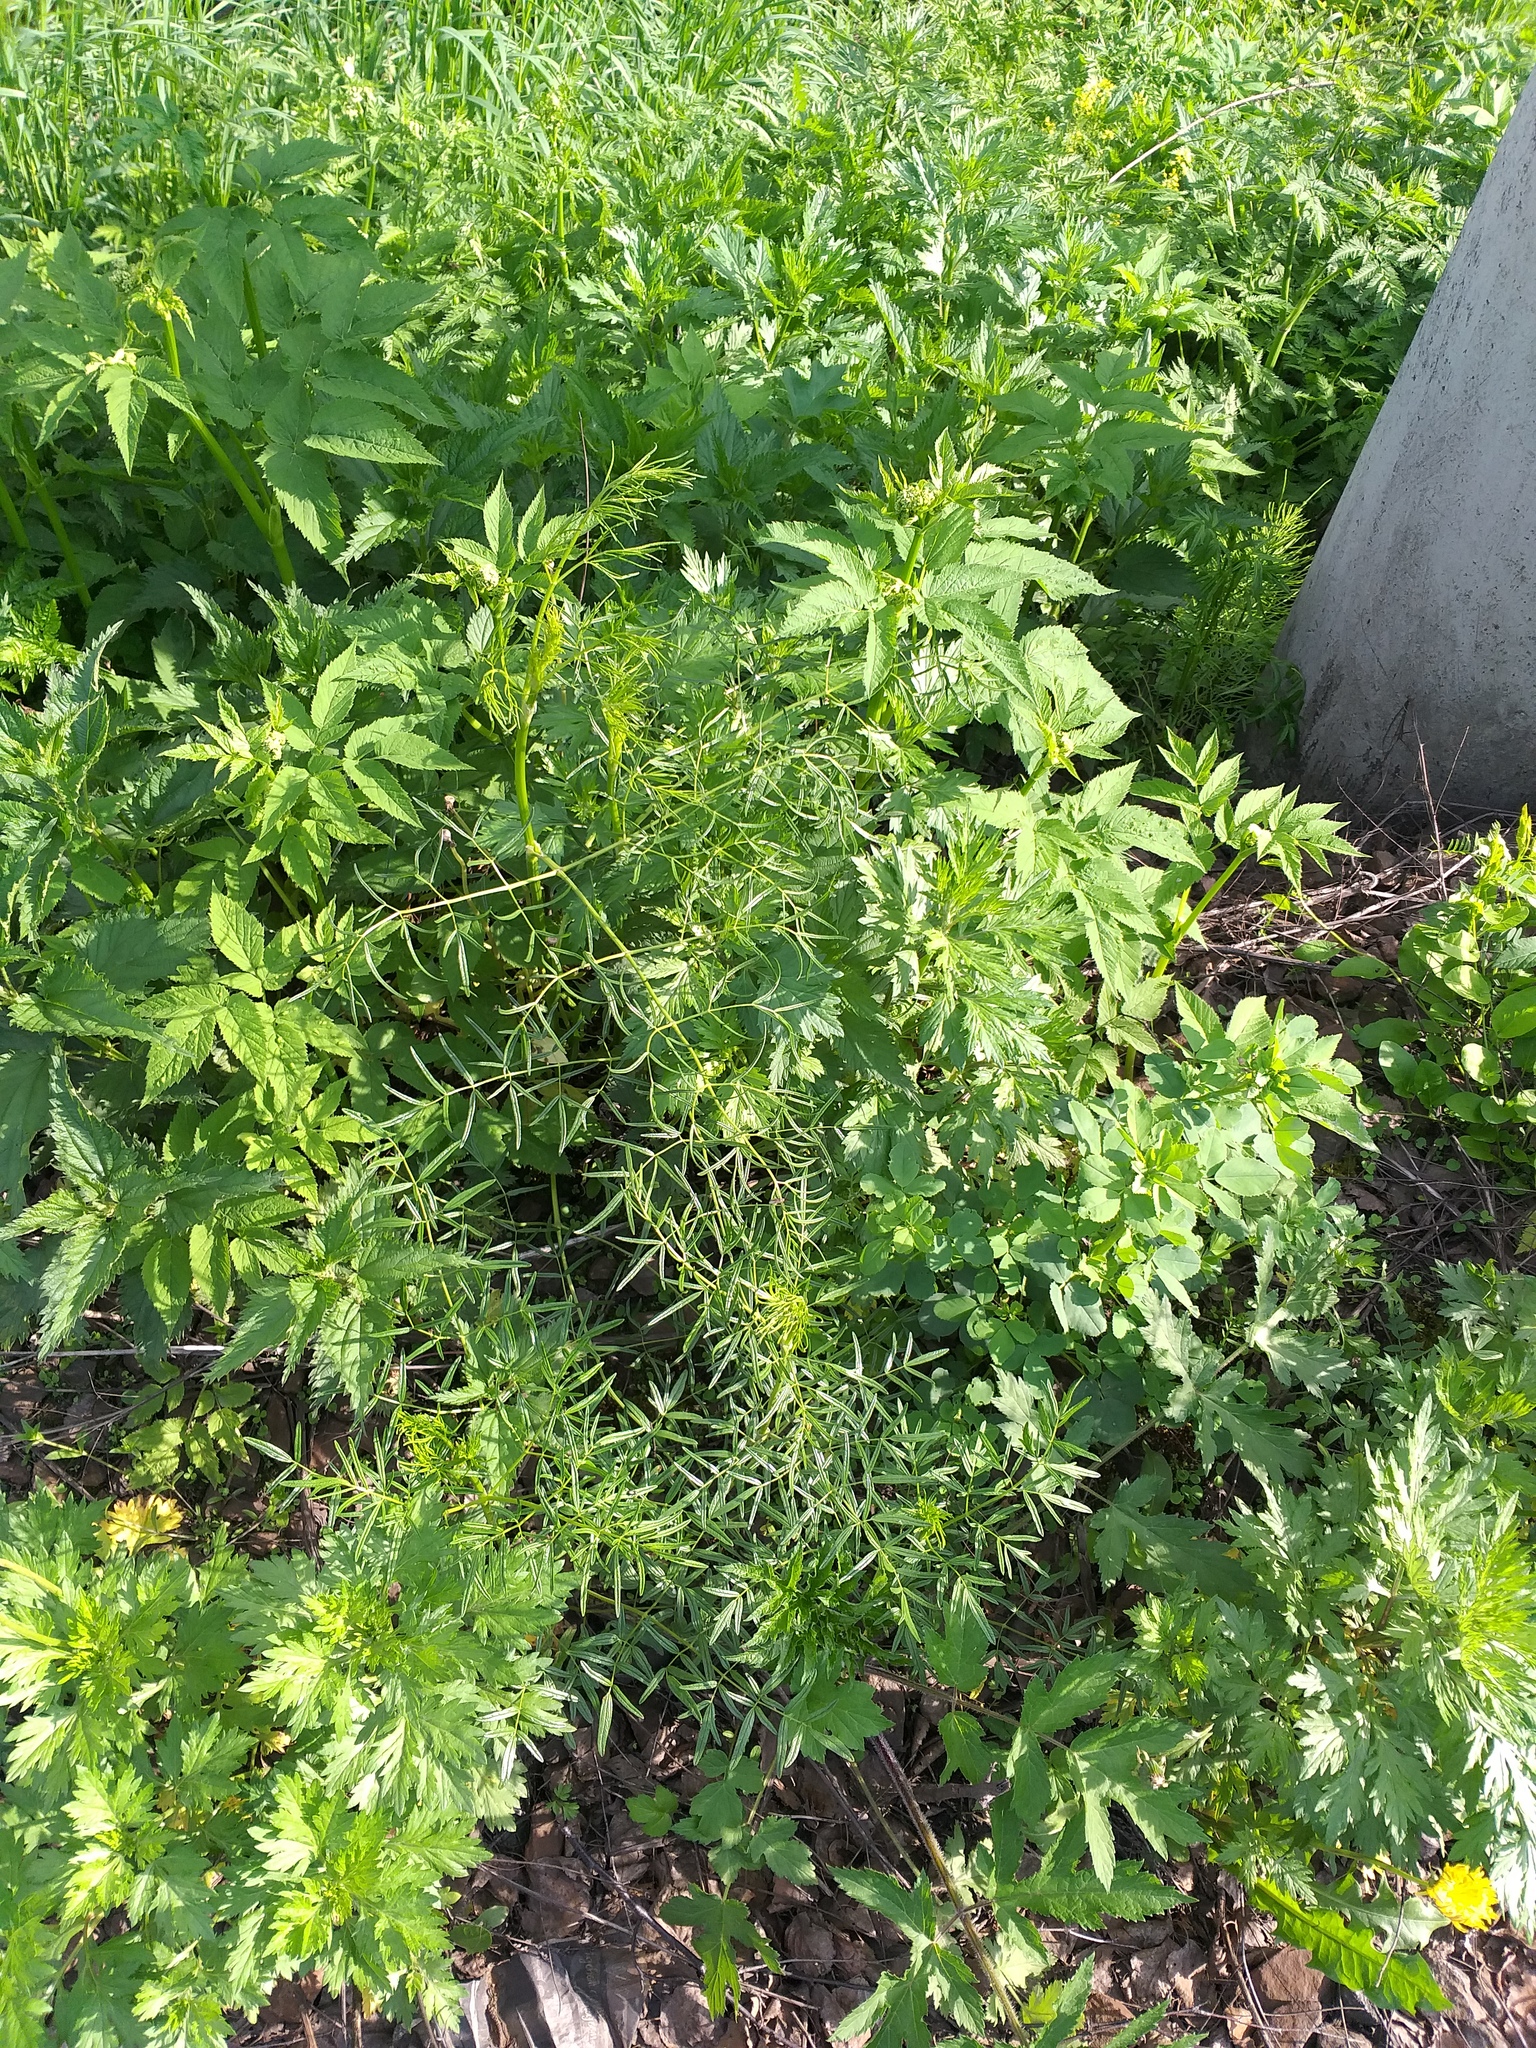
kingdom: Plantae
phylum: Tracheophyta
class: Magnoliopsida
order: Ranunculales
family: Ranunculaceae
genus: Thalictrum
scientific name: Thalictrum lucidum
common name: Shining meadow-rue
